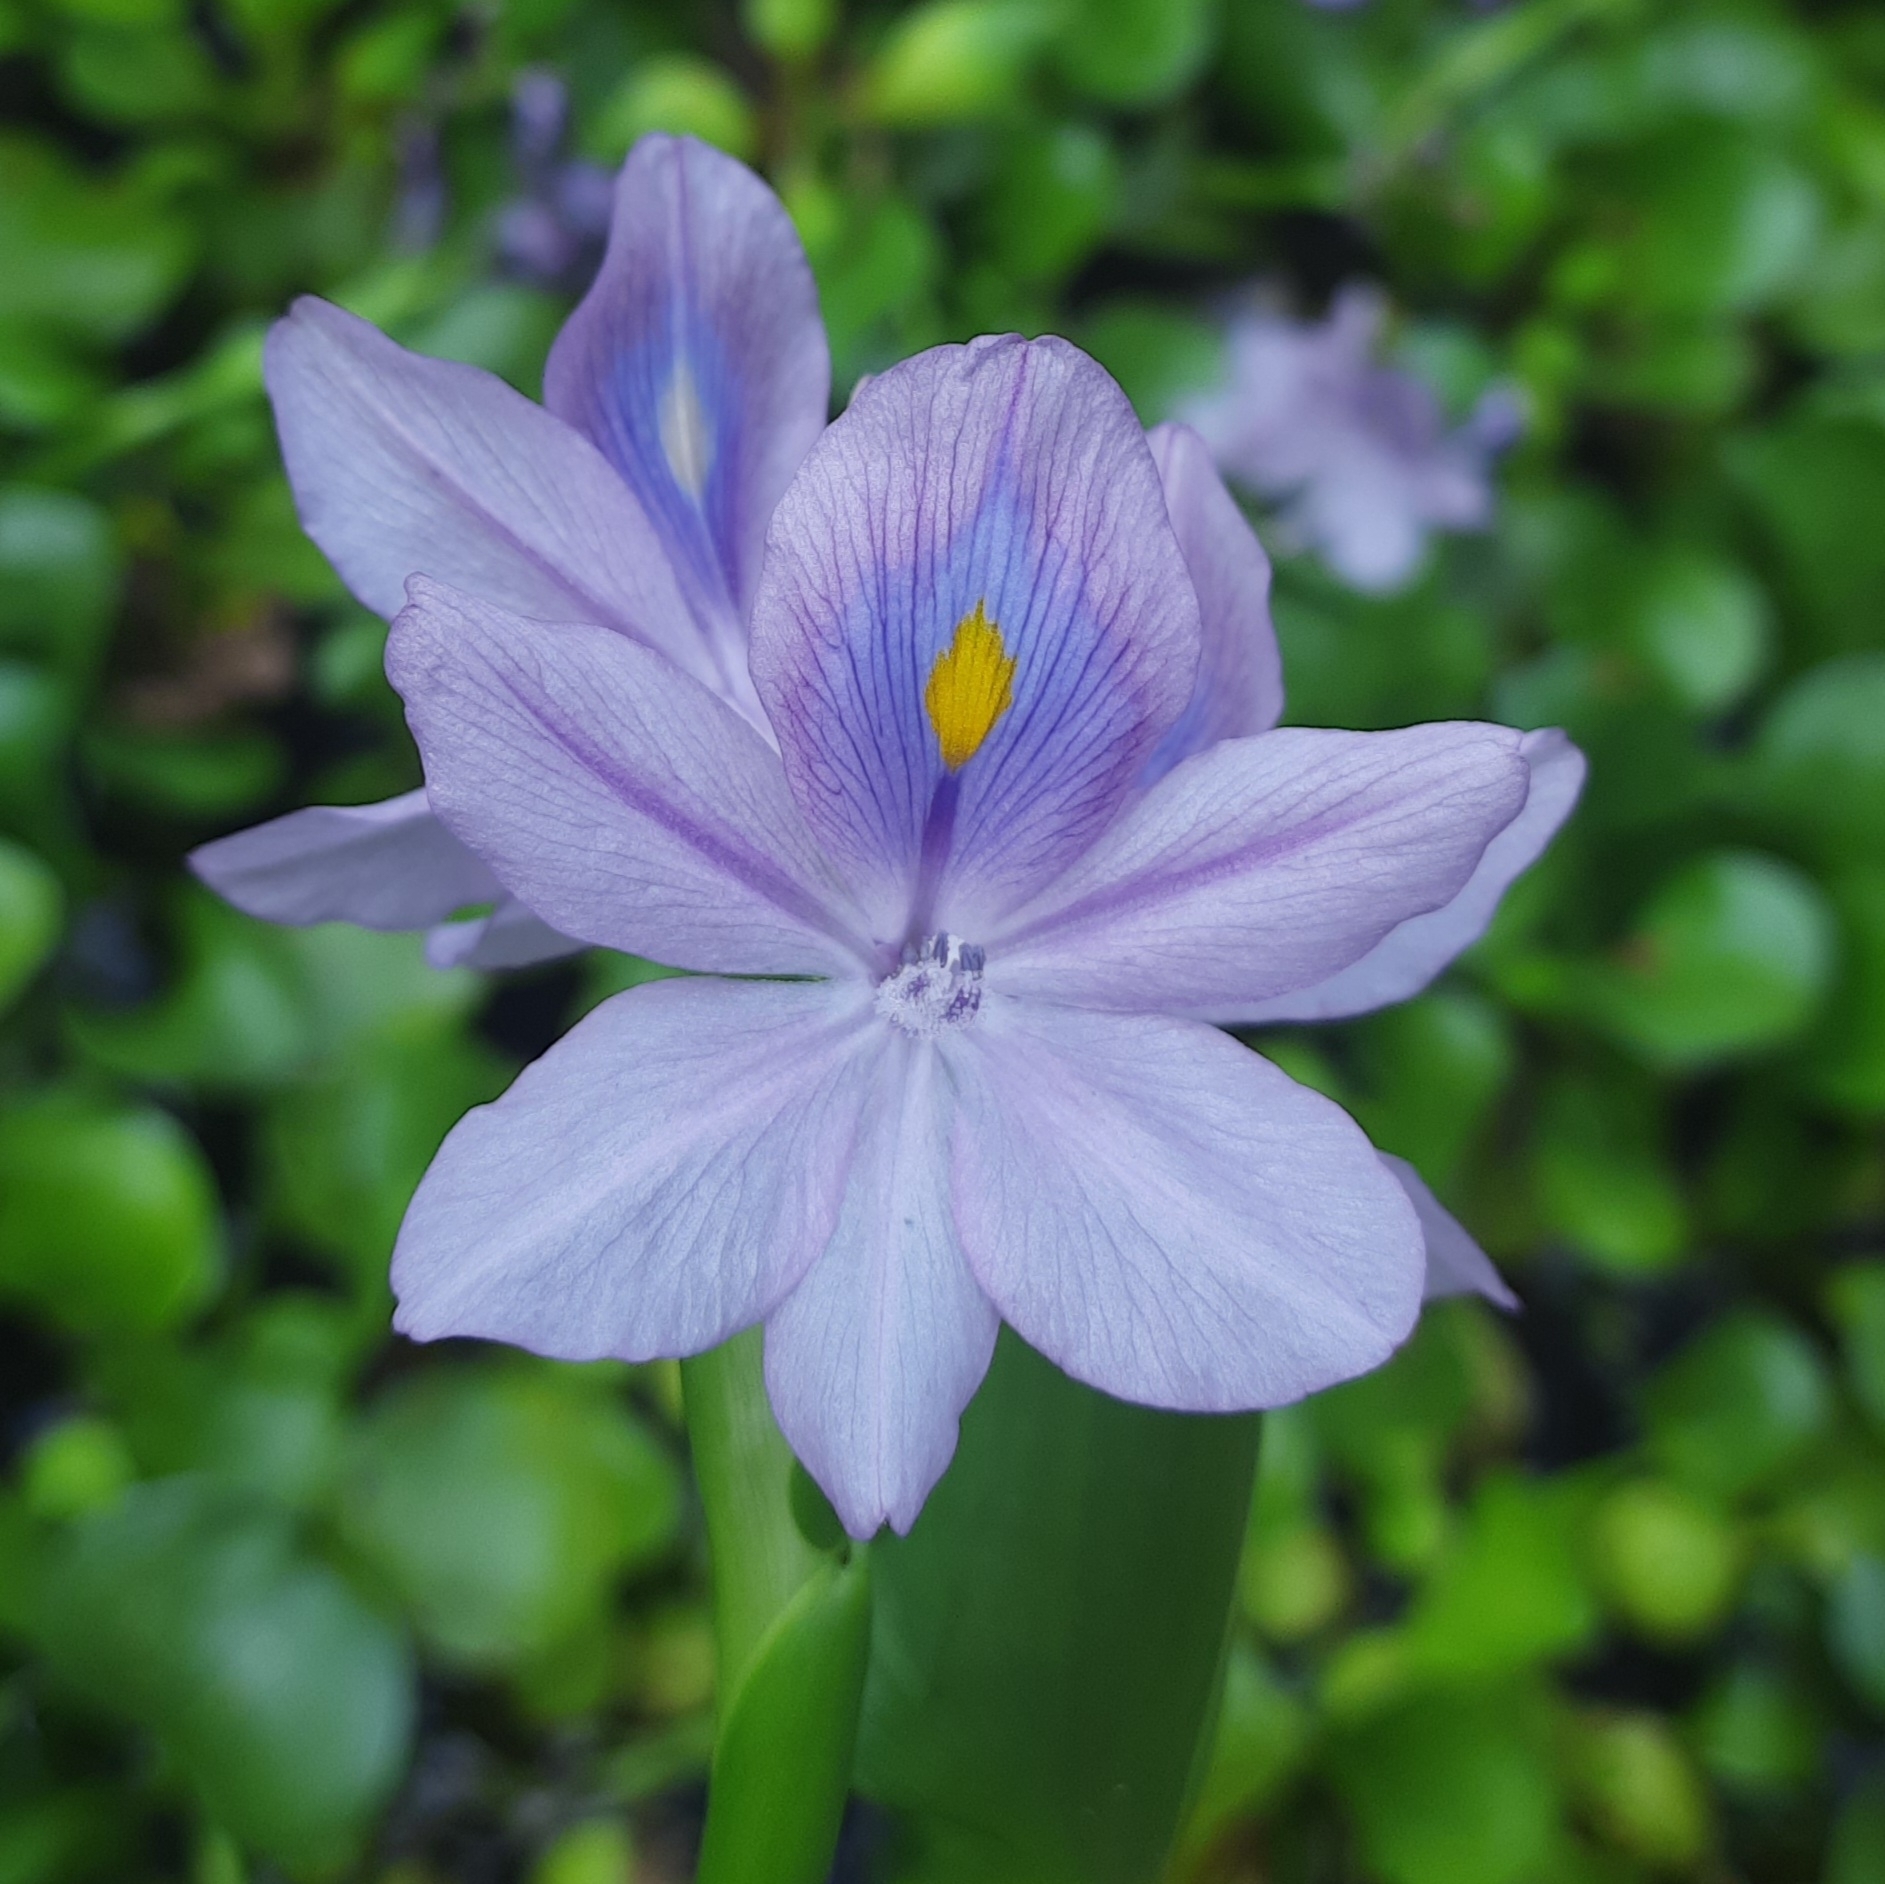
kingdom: Plantae
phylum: Tracheophyta
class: Liliopsida
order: Commelinales
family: Pontederiaceae
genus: Pontederia
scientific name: Pontederia crassipes
